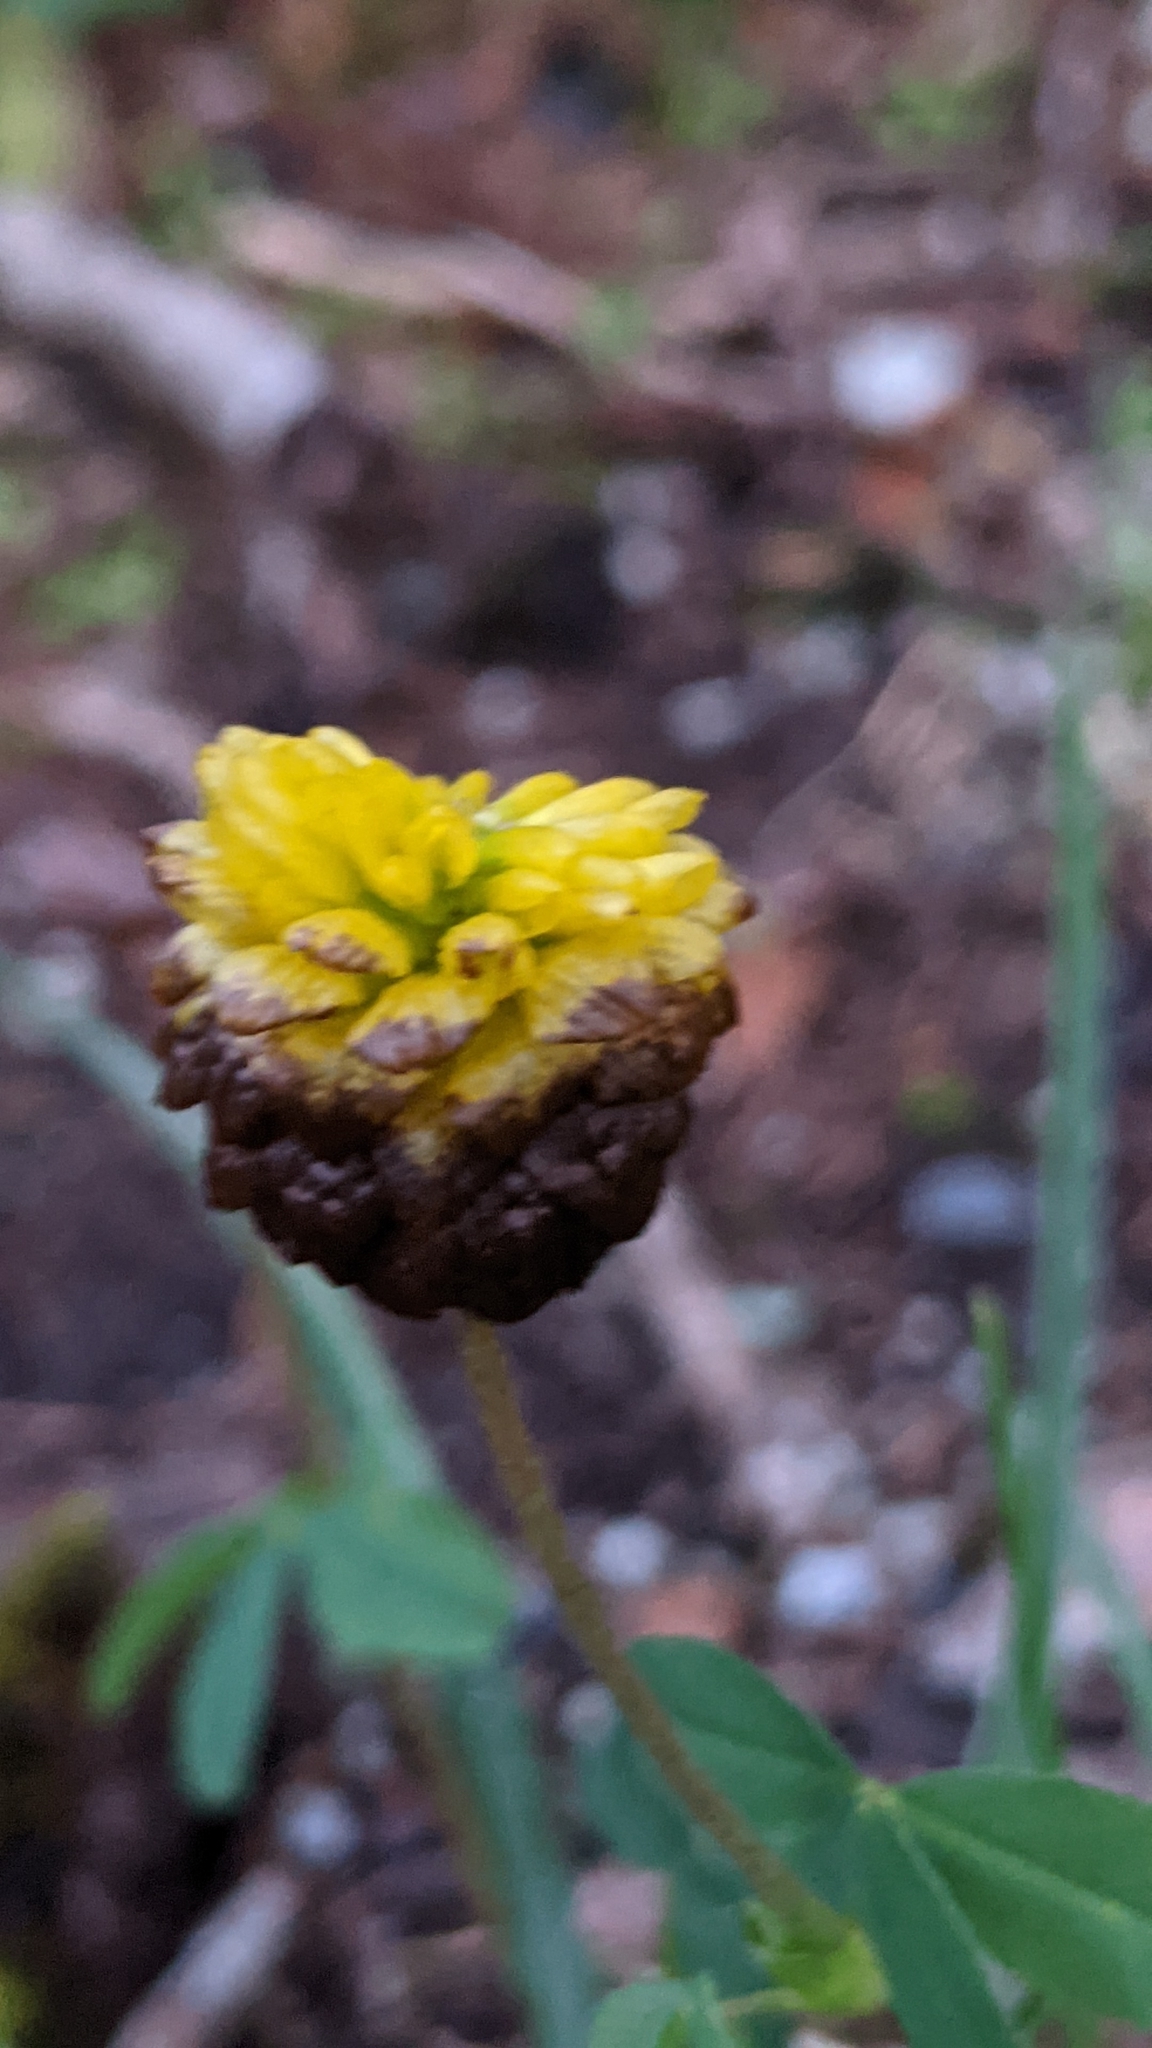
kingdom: Plantae
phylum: Tracheophyta
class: Magnoliopsida
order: Fabales
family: Fabaceae
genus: Trifolium
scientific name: Trifolium badium
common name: Brown clover
